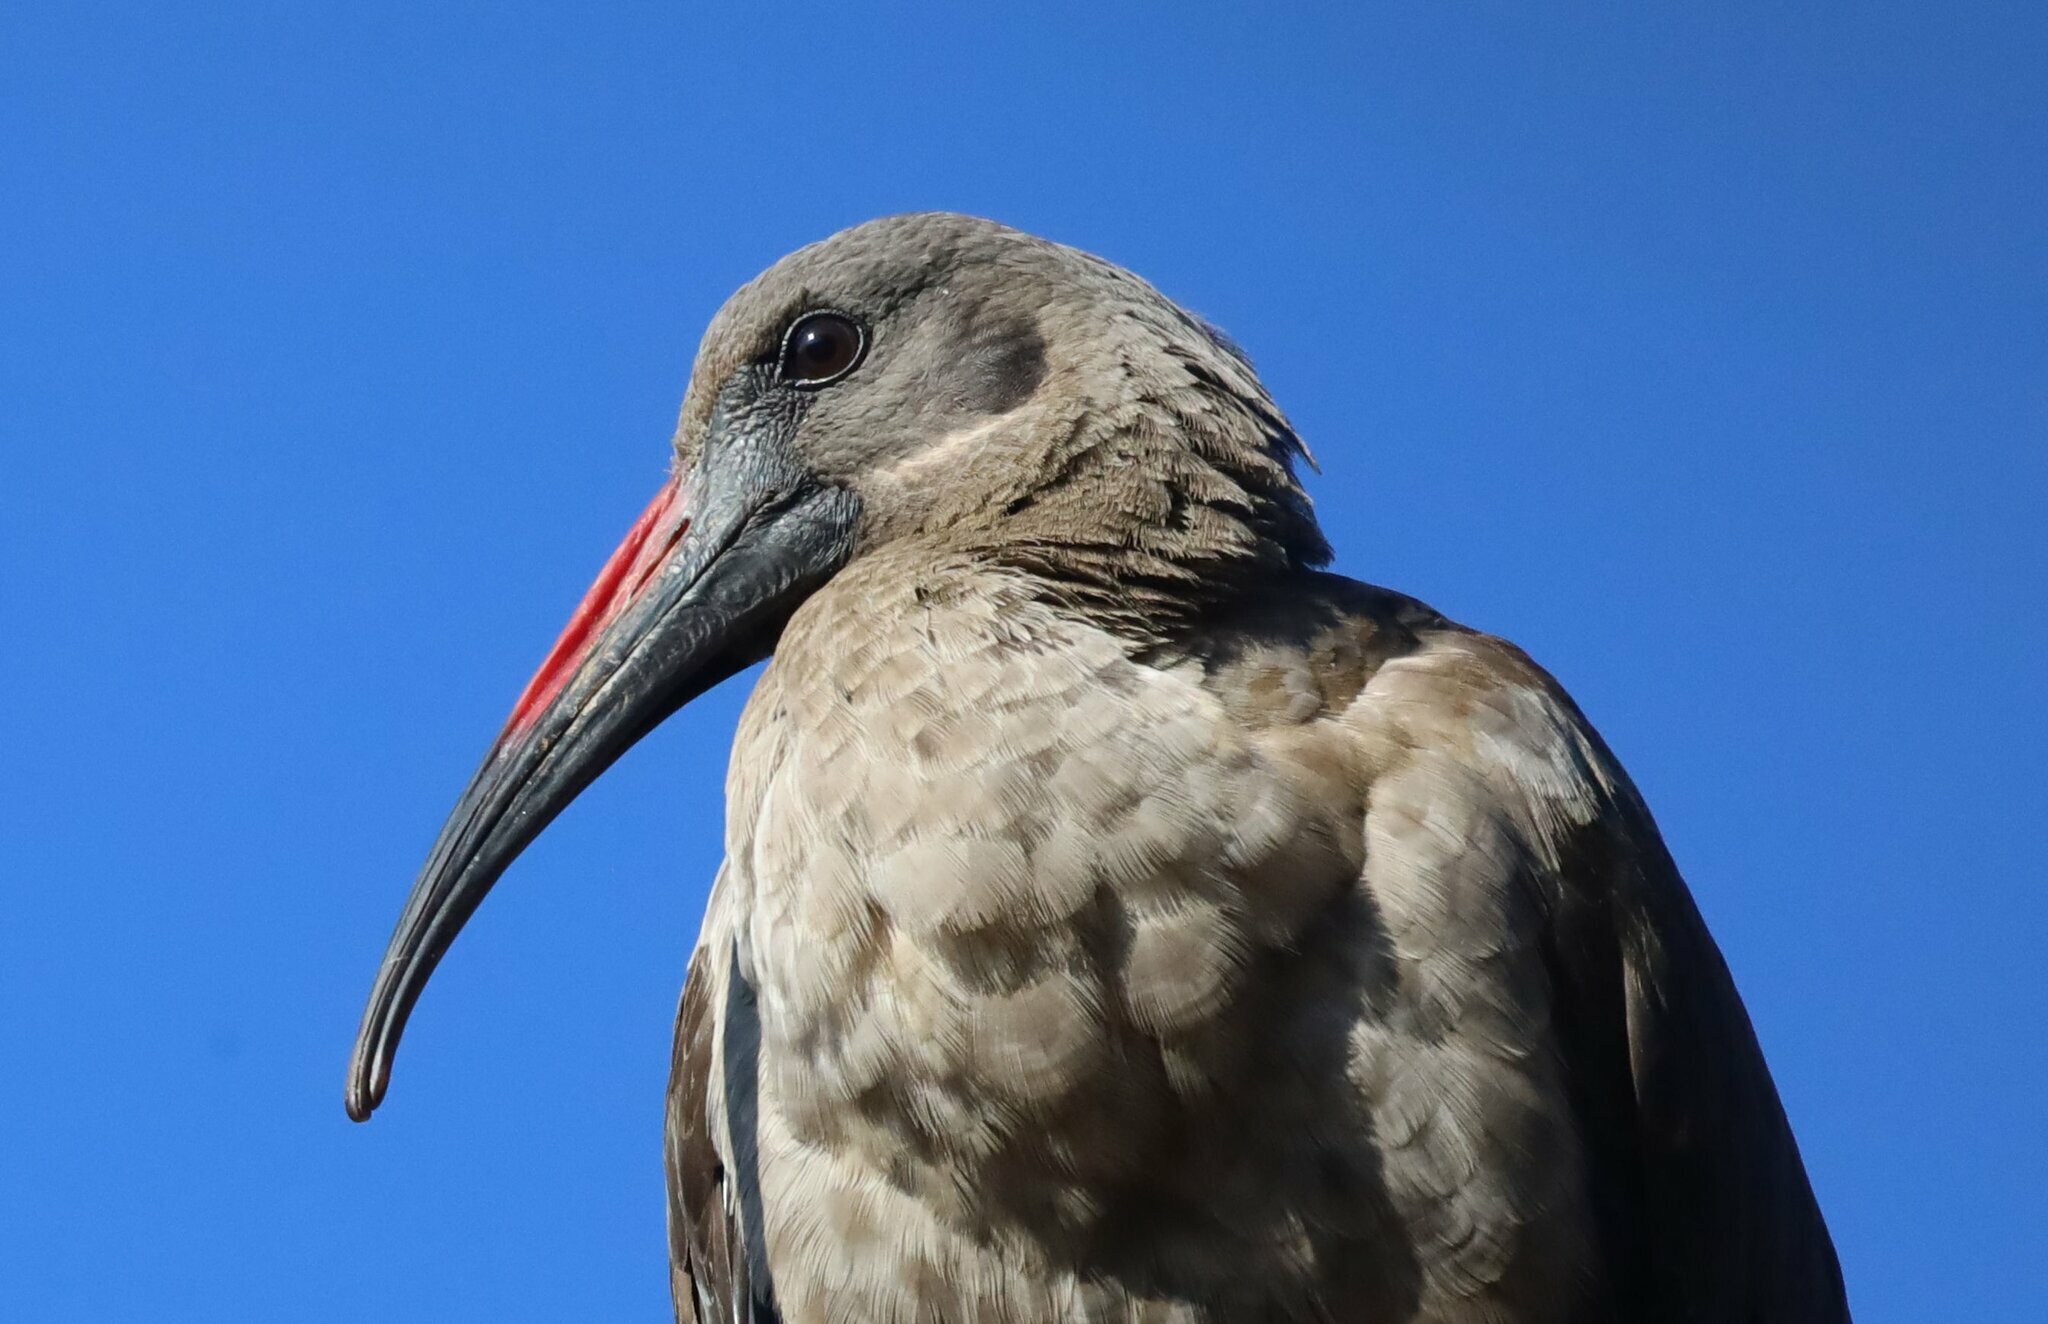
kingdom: Animalia
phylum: Chordata
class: Aves
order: Pelecaniformes
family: Threskiornithidae
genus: Bostrychia
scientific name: Bostrychia hagedash
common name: Hadada ibis
